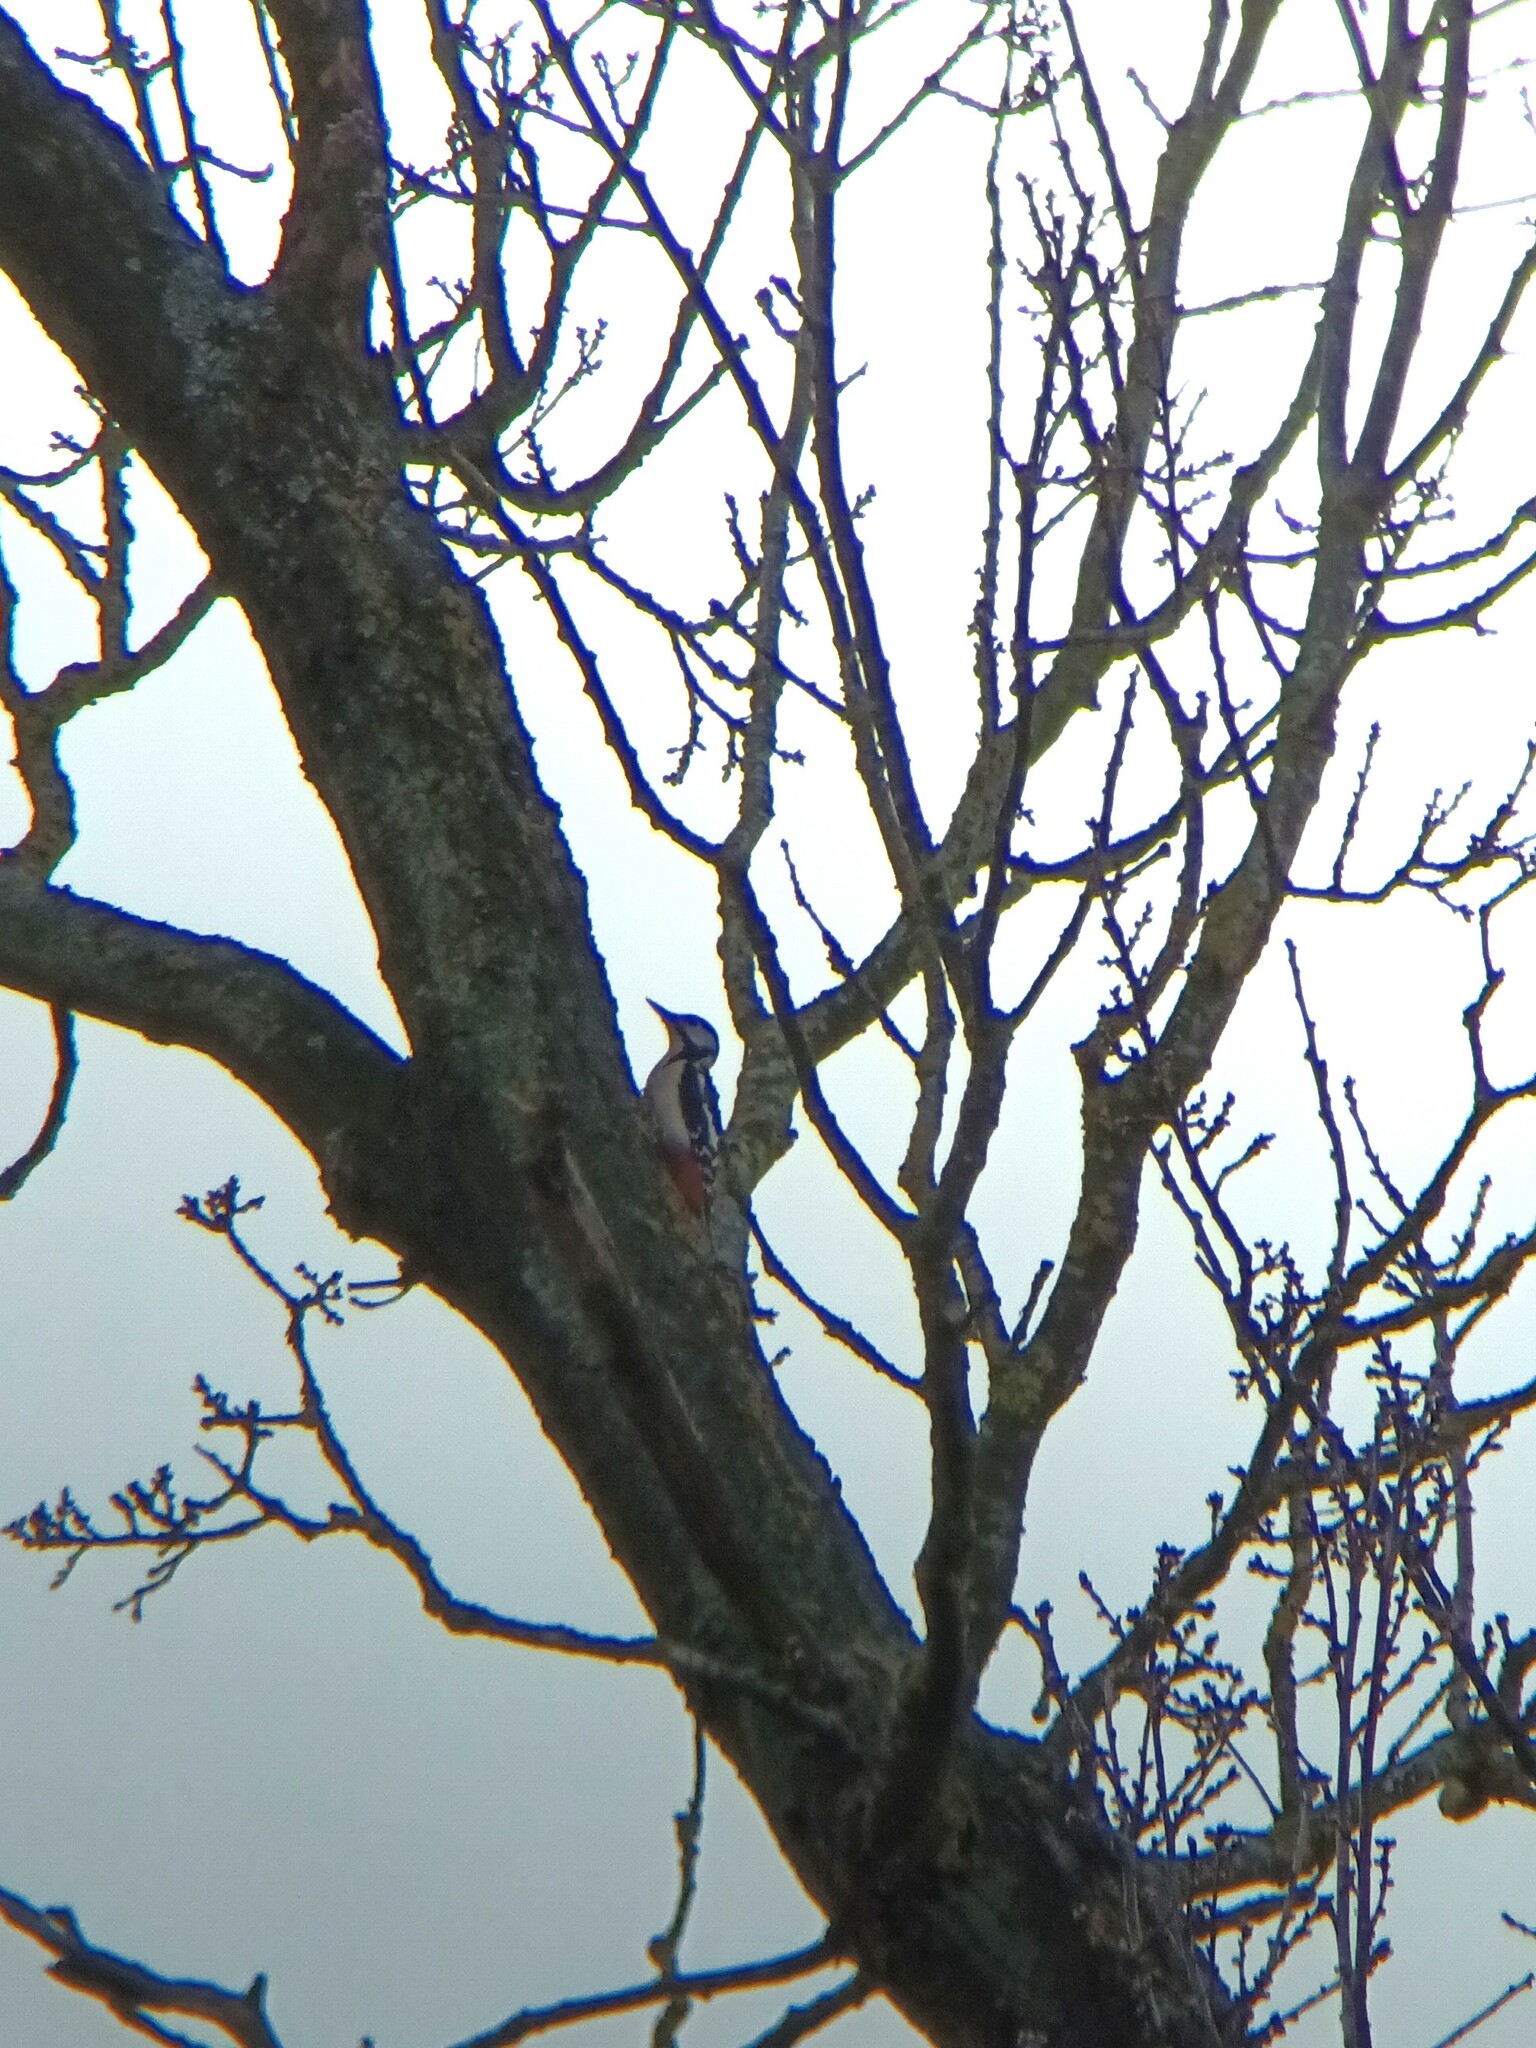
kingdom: Animalia
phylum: Chordata
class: Aves
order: Piciformes
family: Picidae
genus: Dendrocopos
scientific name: Dendrocopos major
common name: Great spotted woodpecker
